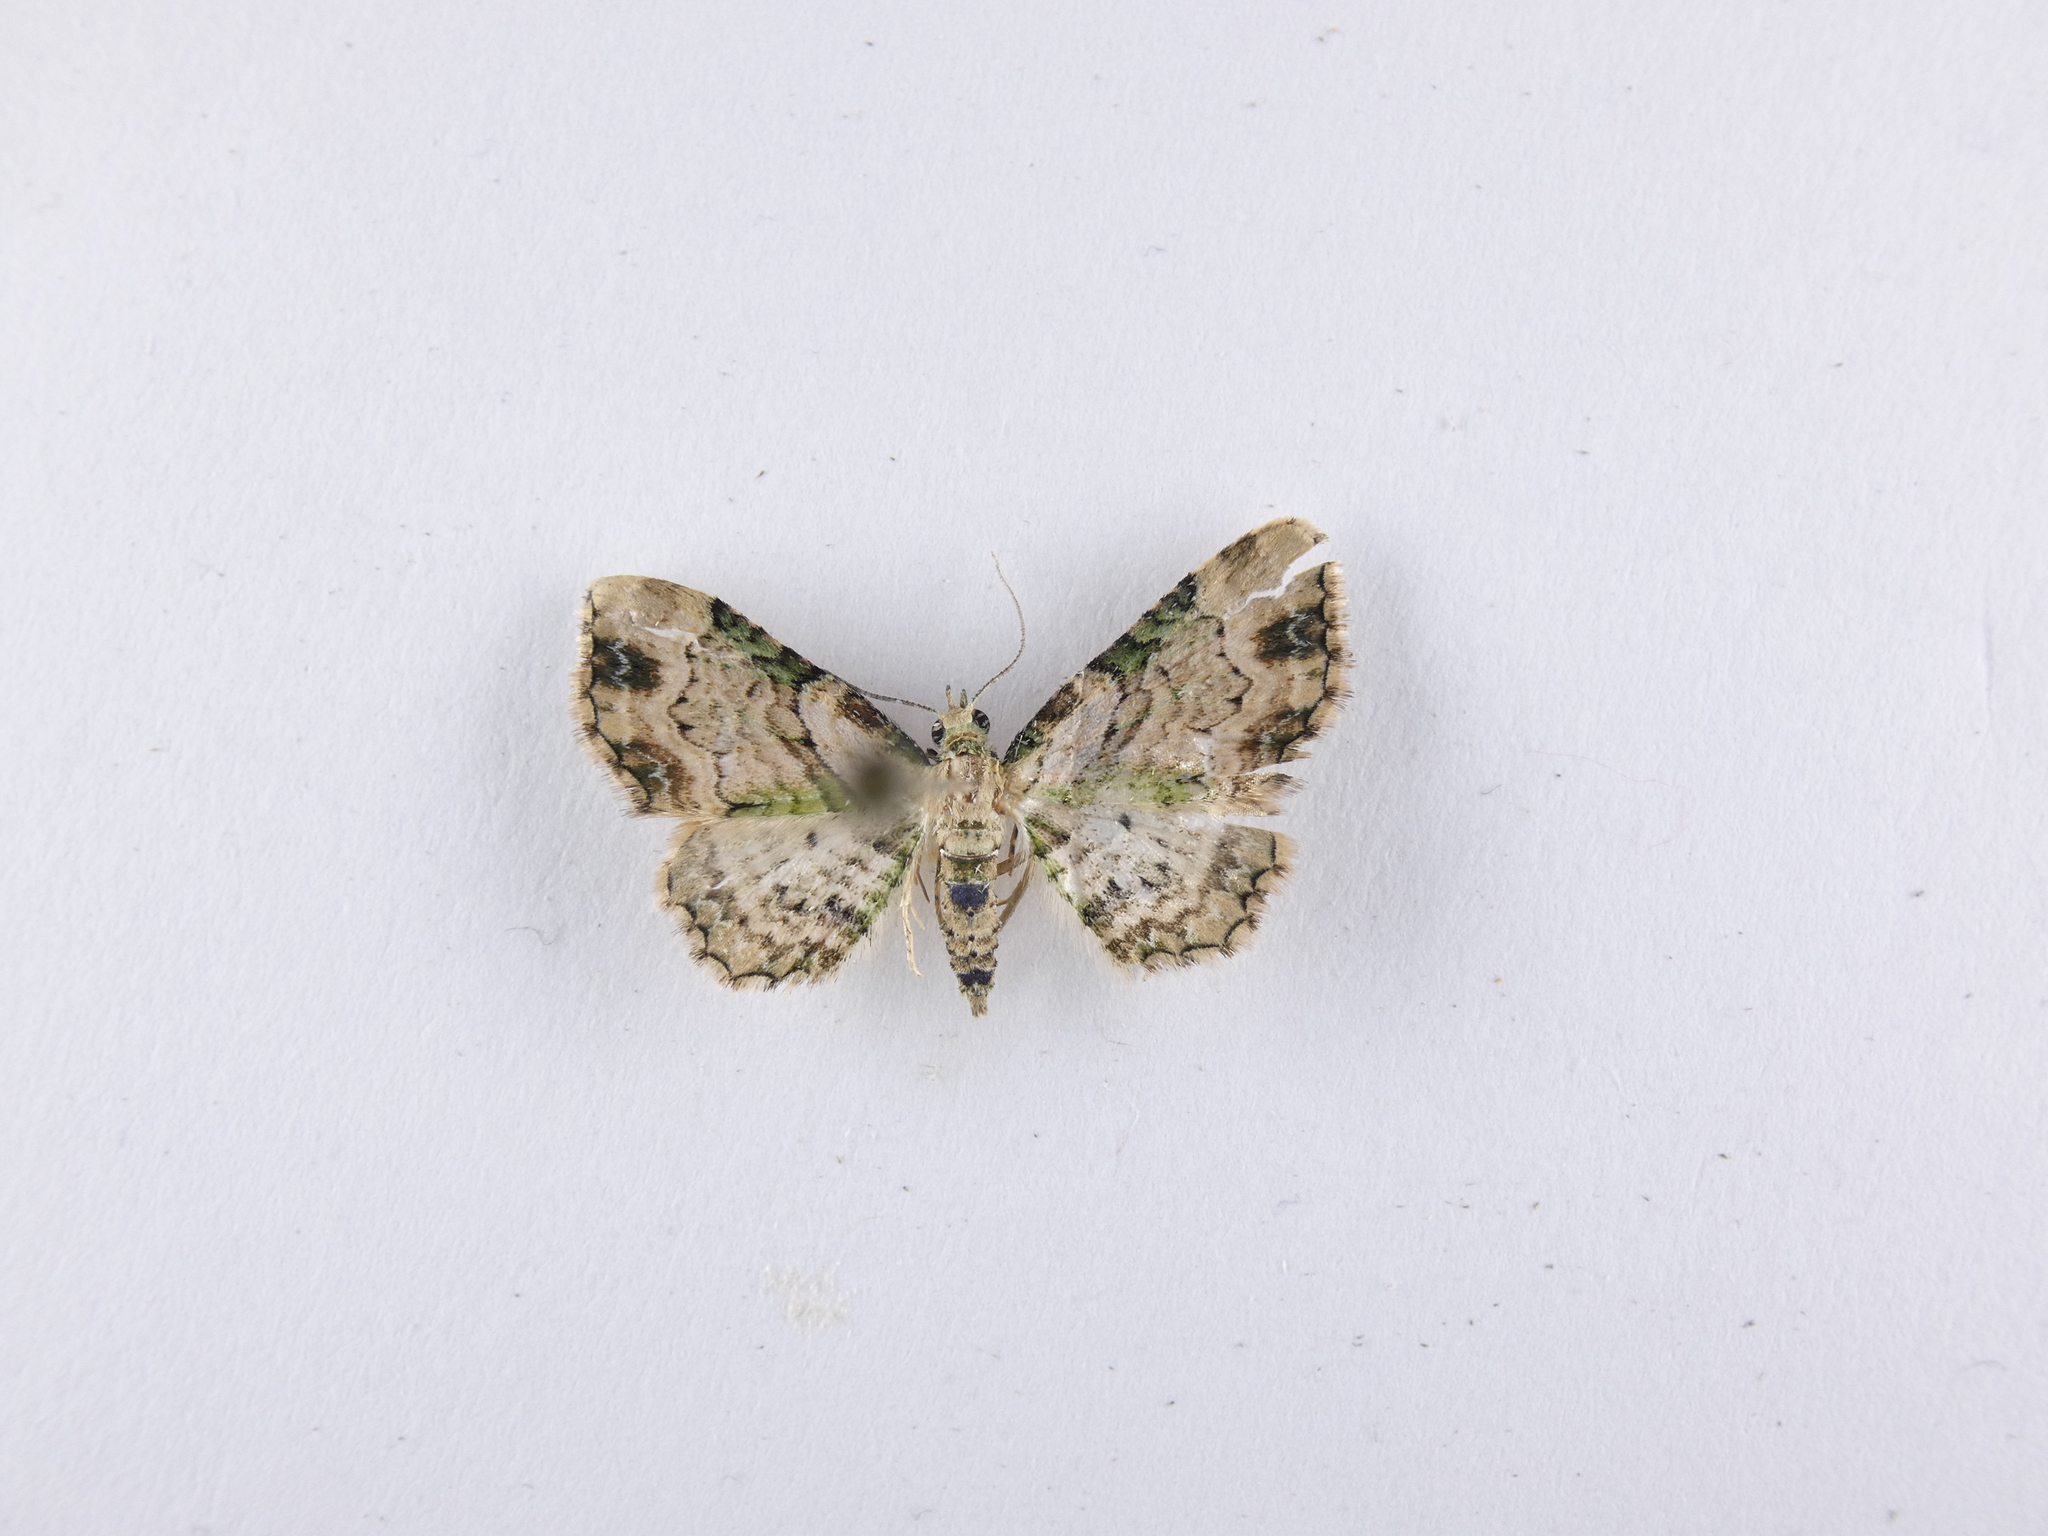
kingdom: Animalia
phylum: Arthropoda
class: Insecta
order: Lepidoptera
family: Geometridae
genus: Chloroclystis
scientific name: Chloroclystis
